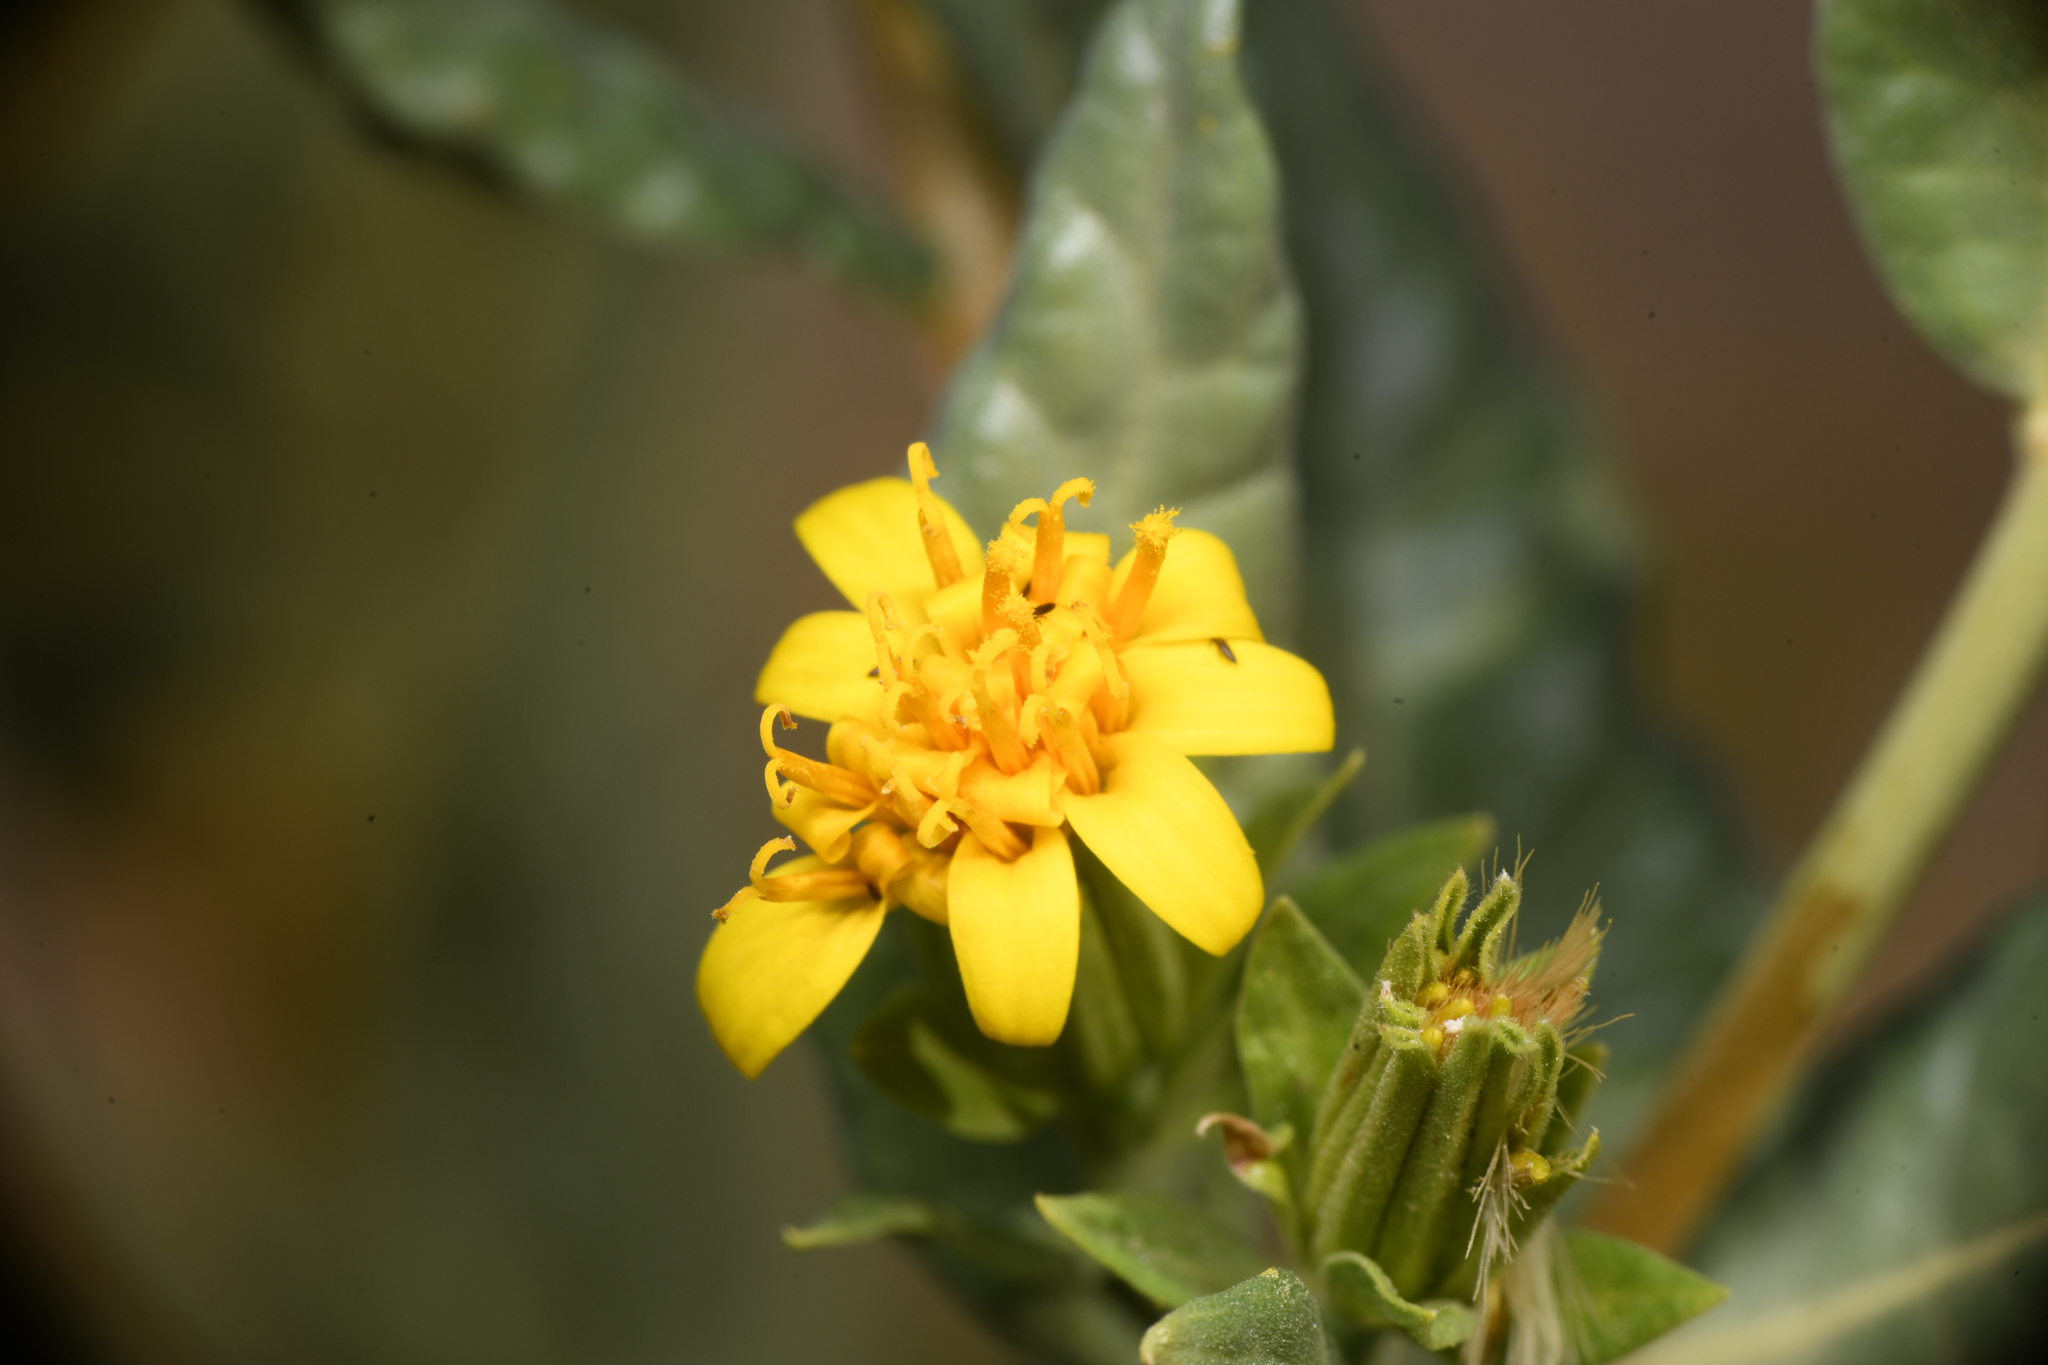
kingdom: Plantae
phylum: Tracheophyta
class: Magnoliopsida
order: Asterales
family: Asteraceae
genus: Trixis
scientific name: Trixis californica
